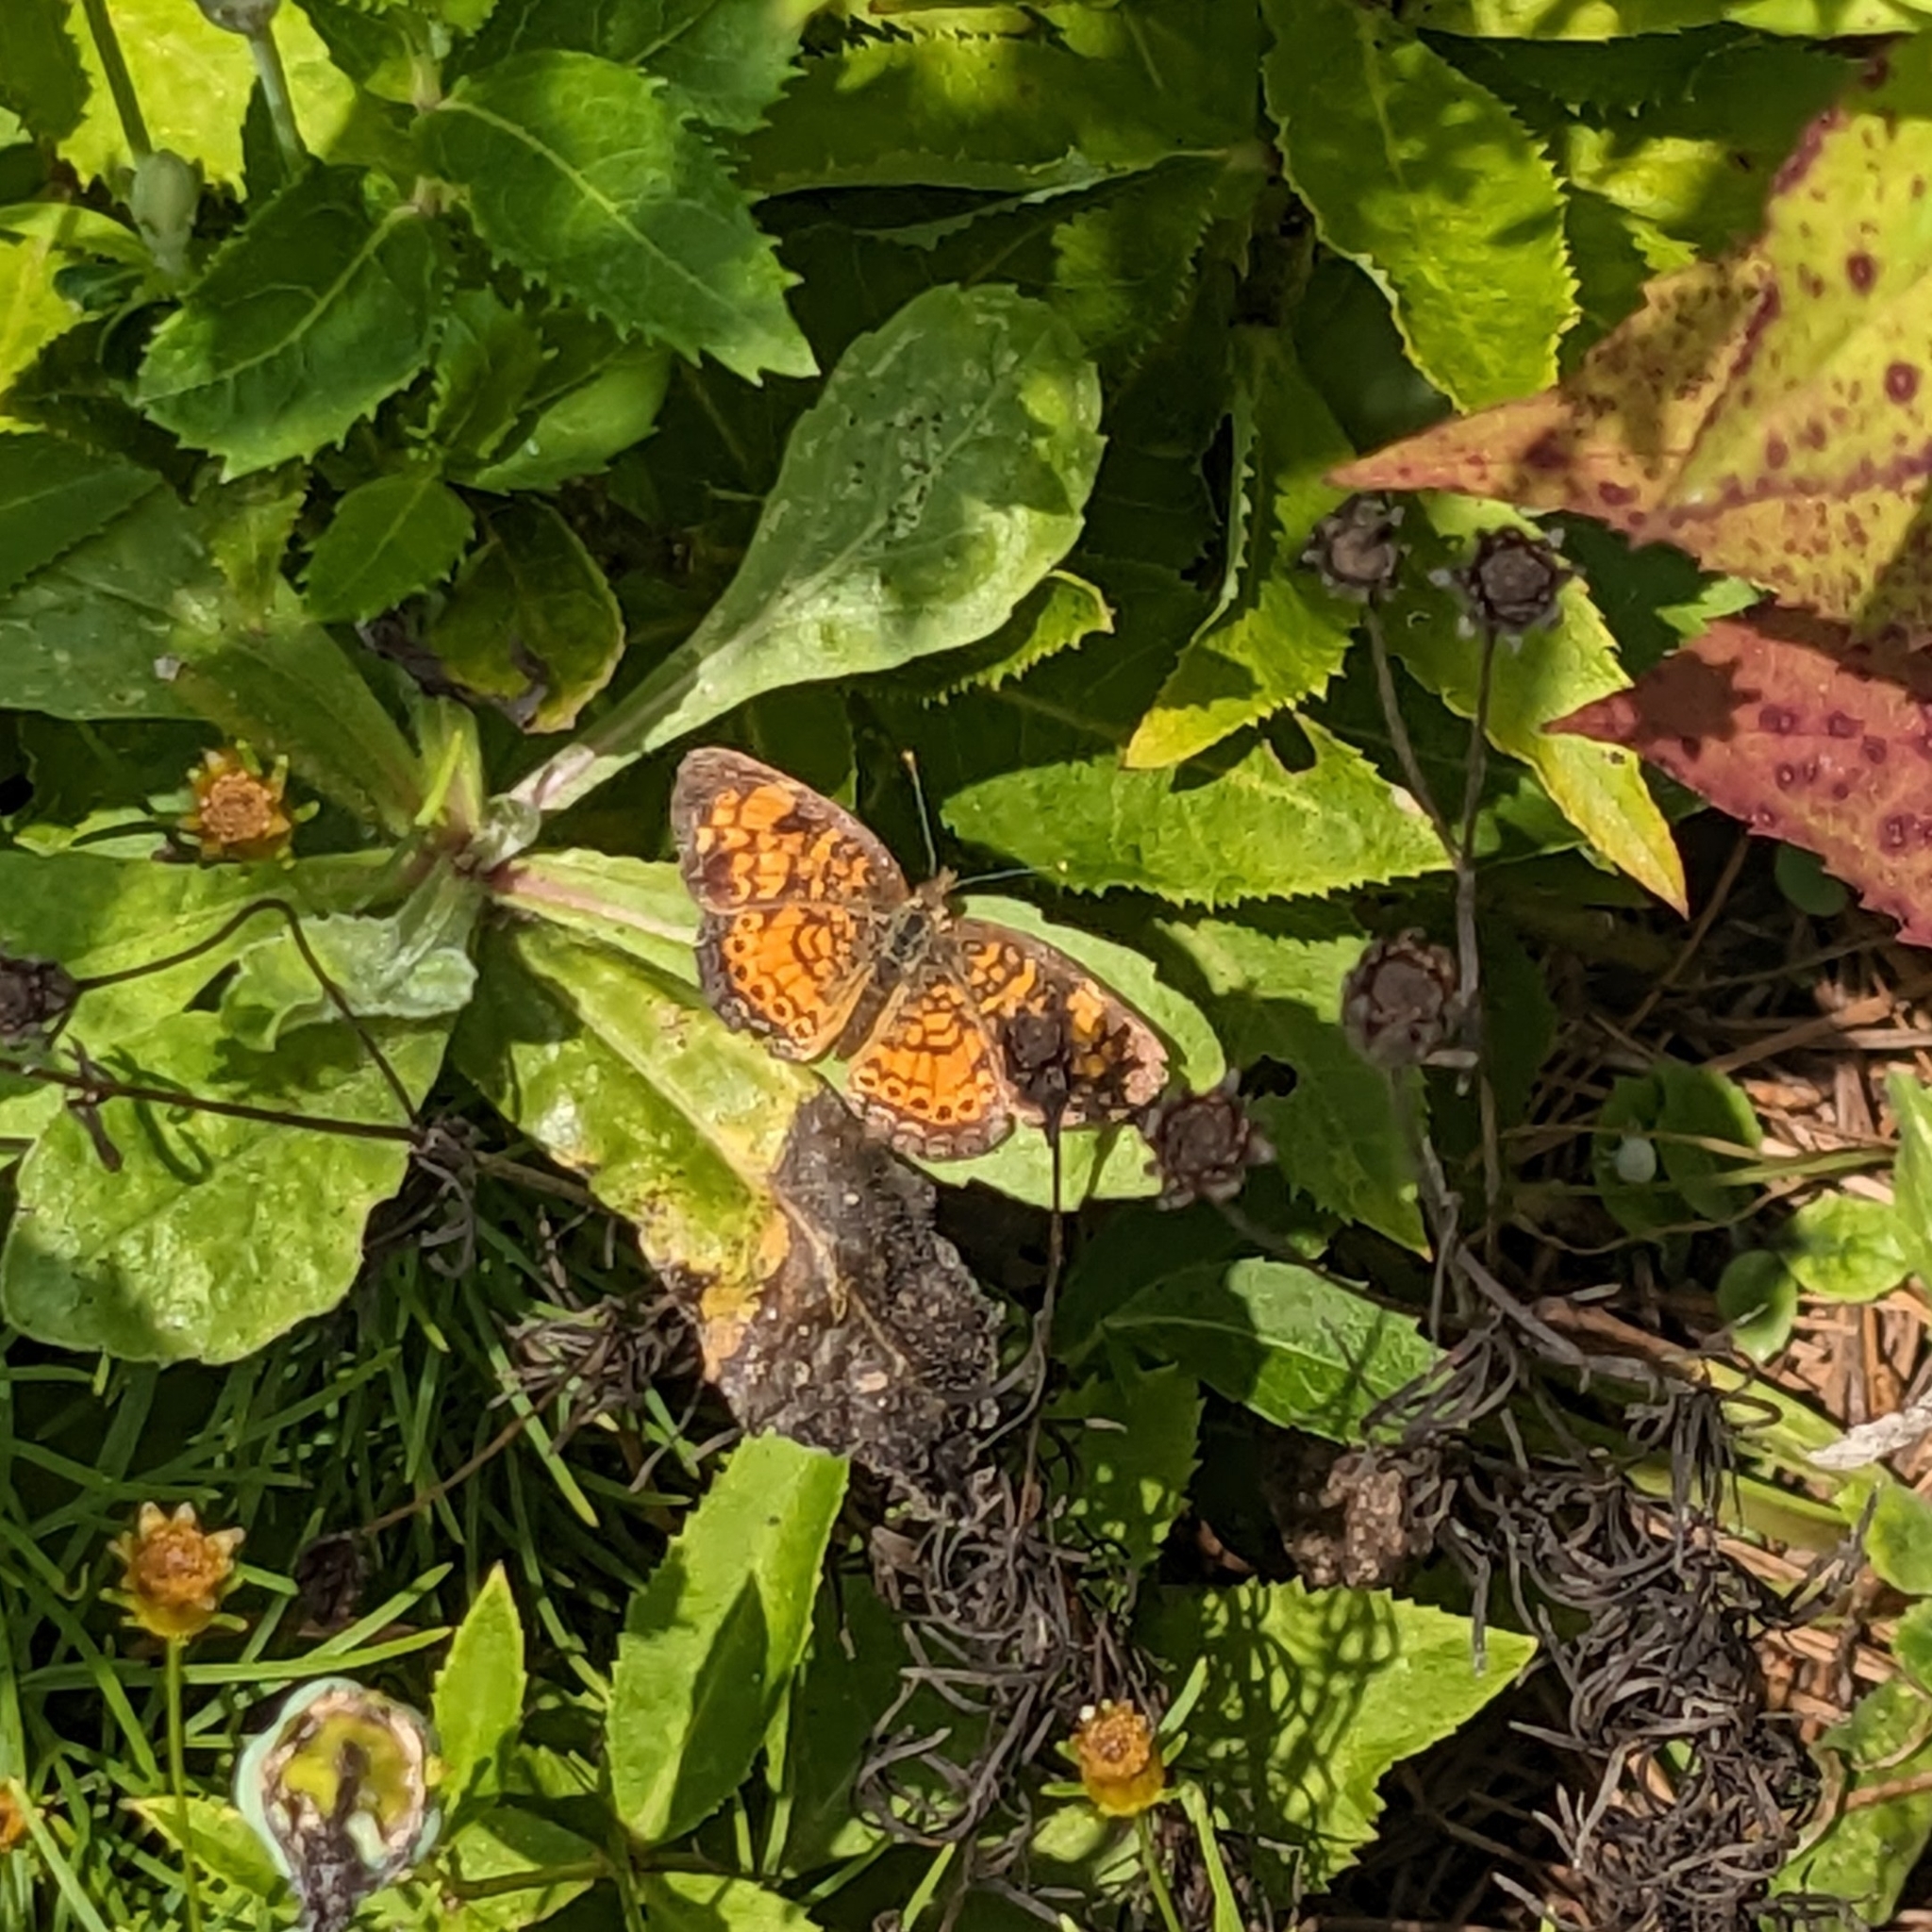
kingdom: Animalia
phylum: Arthropoda
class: Insecta
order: Lepidoptera
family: Nymphalidae
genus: Phyciodes
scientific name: Phyciodes tharos
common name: Pearl crescent
